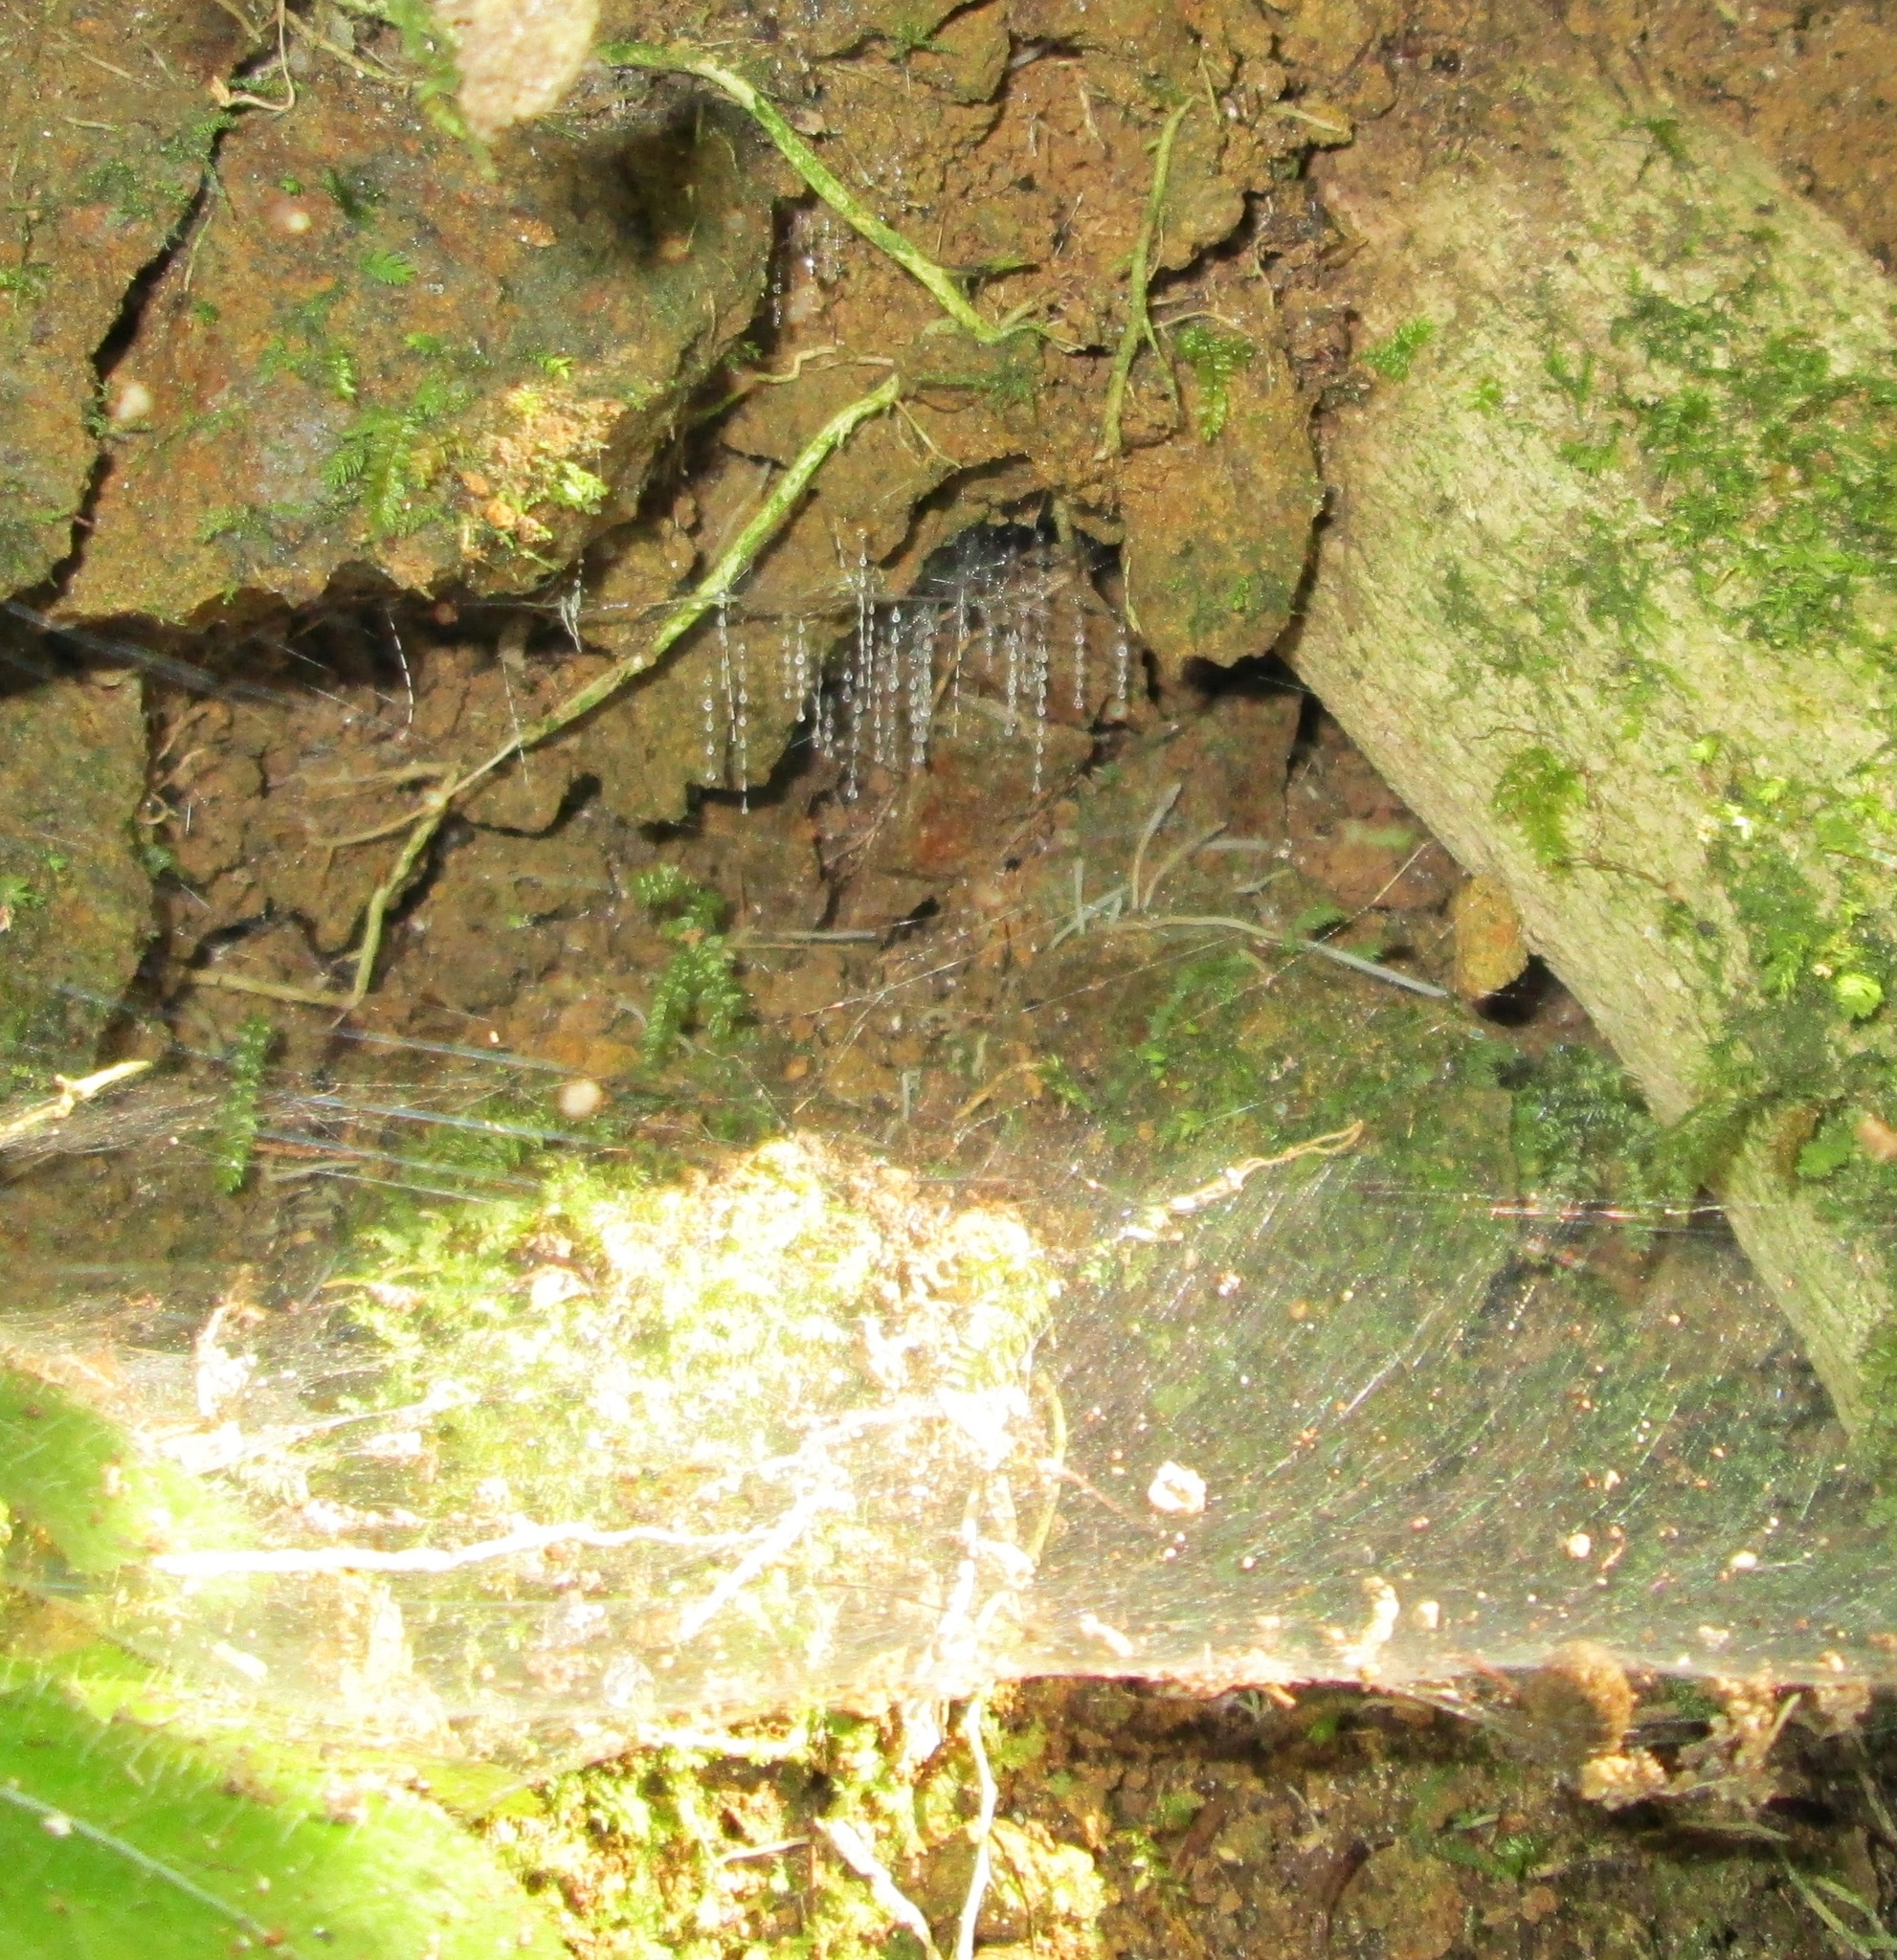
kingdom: Animalia
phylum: Arthropoda
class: Insecta
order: Diptera
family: Keroplatidae
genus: Arachnocampa
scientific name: Arachnocampa luminosa
